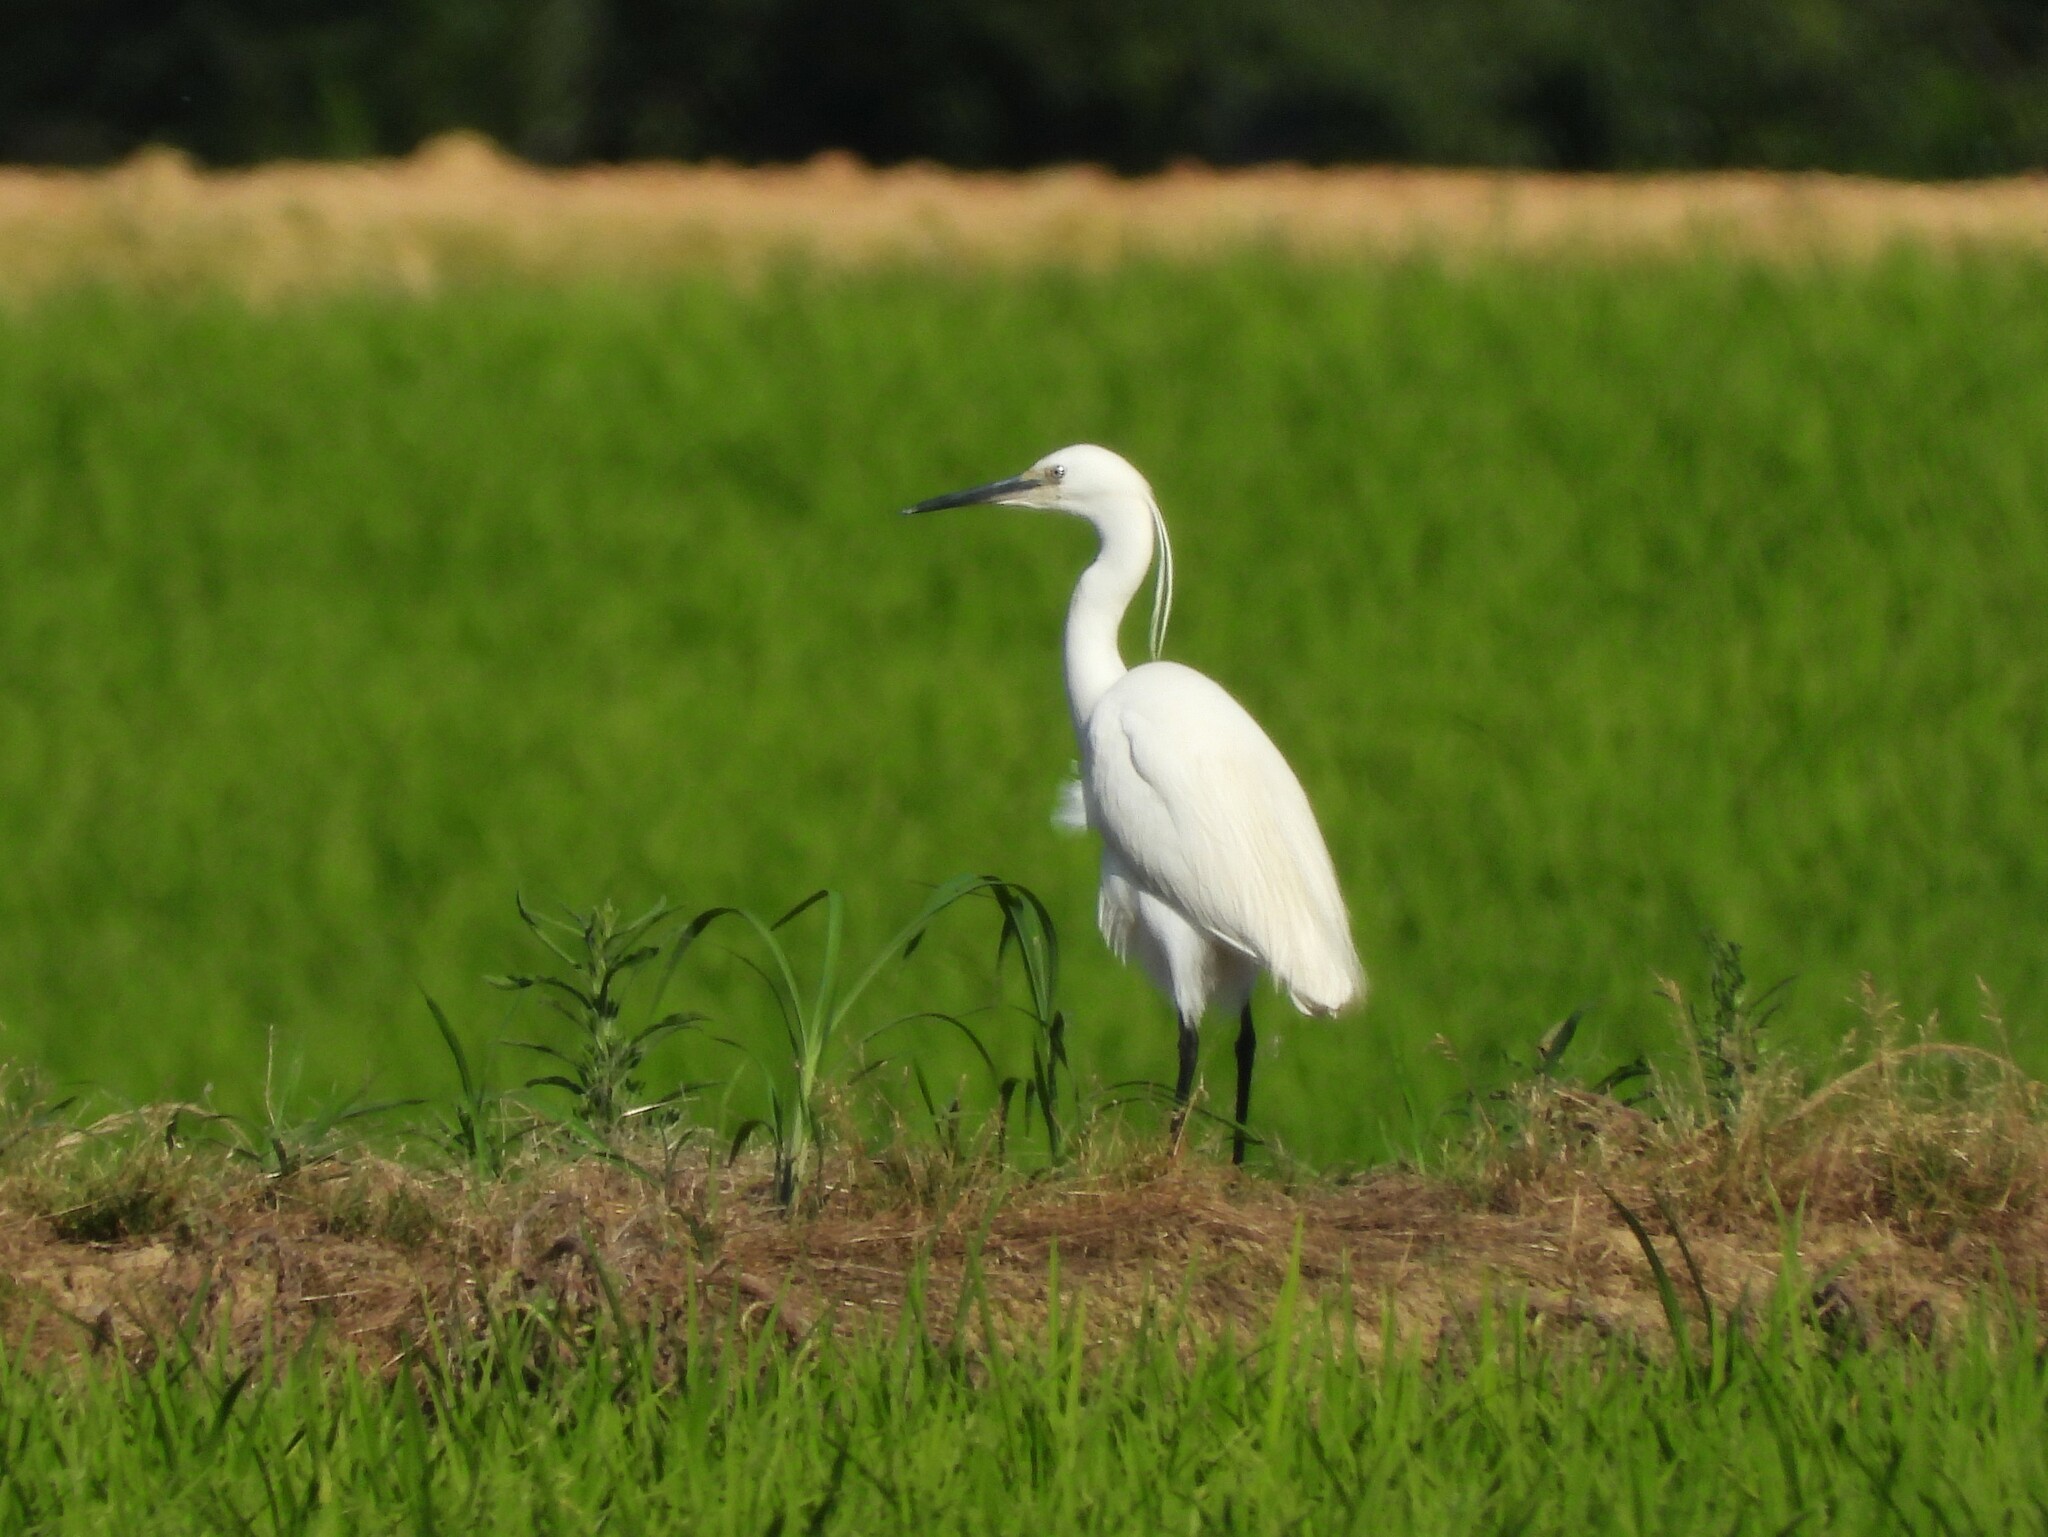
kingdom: Animalia
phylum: Chordata
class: Aves
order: Pelecaniformes
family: Ardeidae
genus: Egretta
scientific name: Egretta garzetta
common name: Little egret
